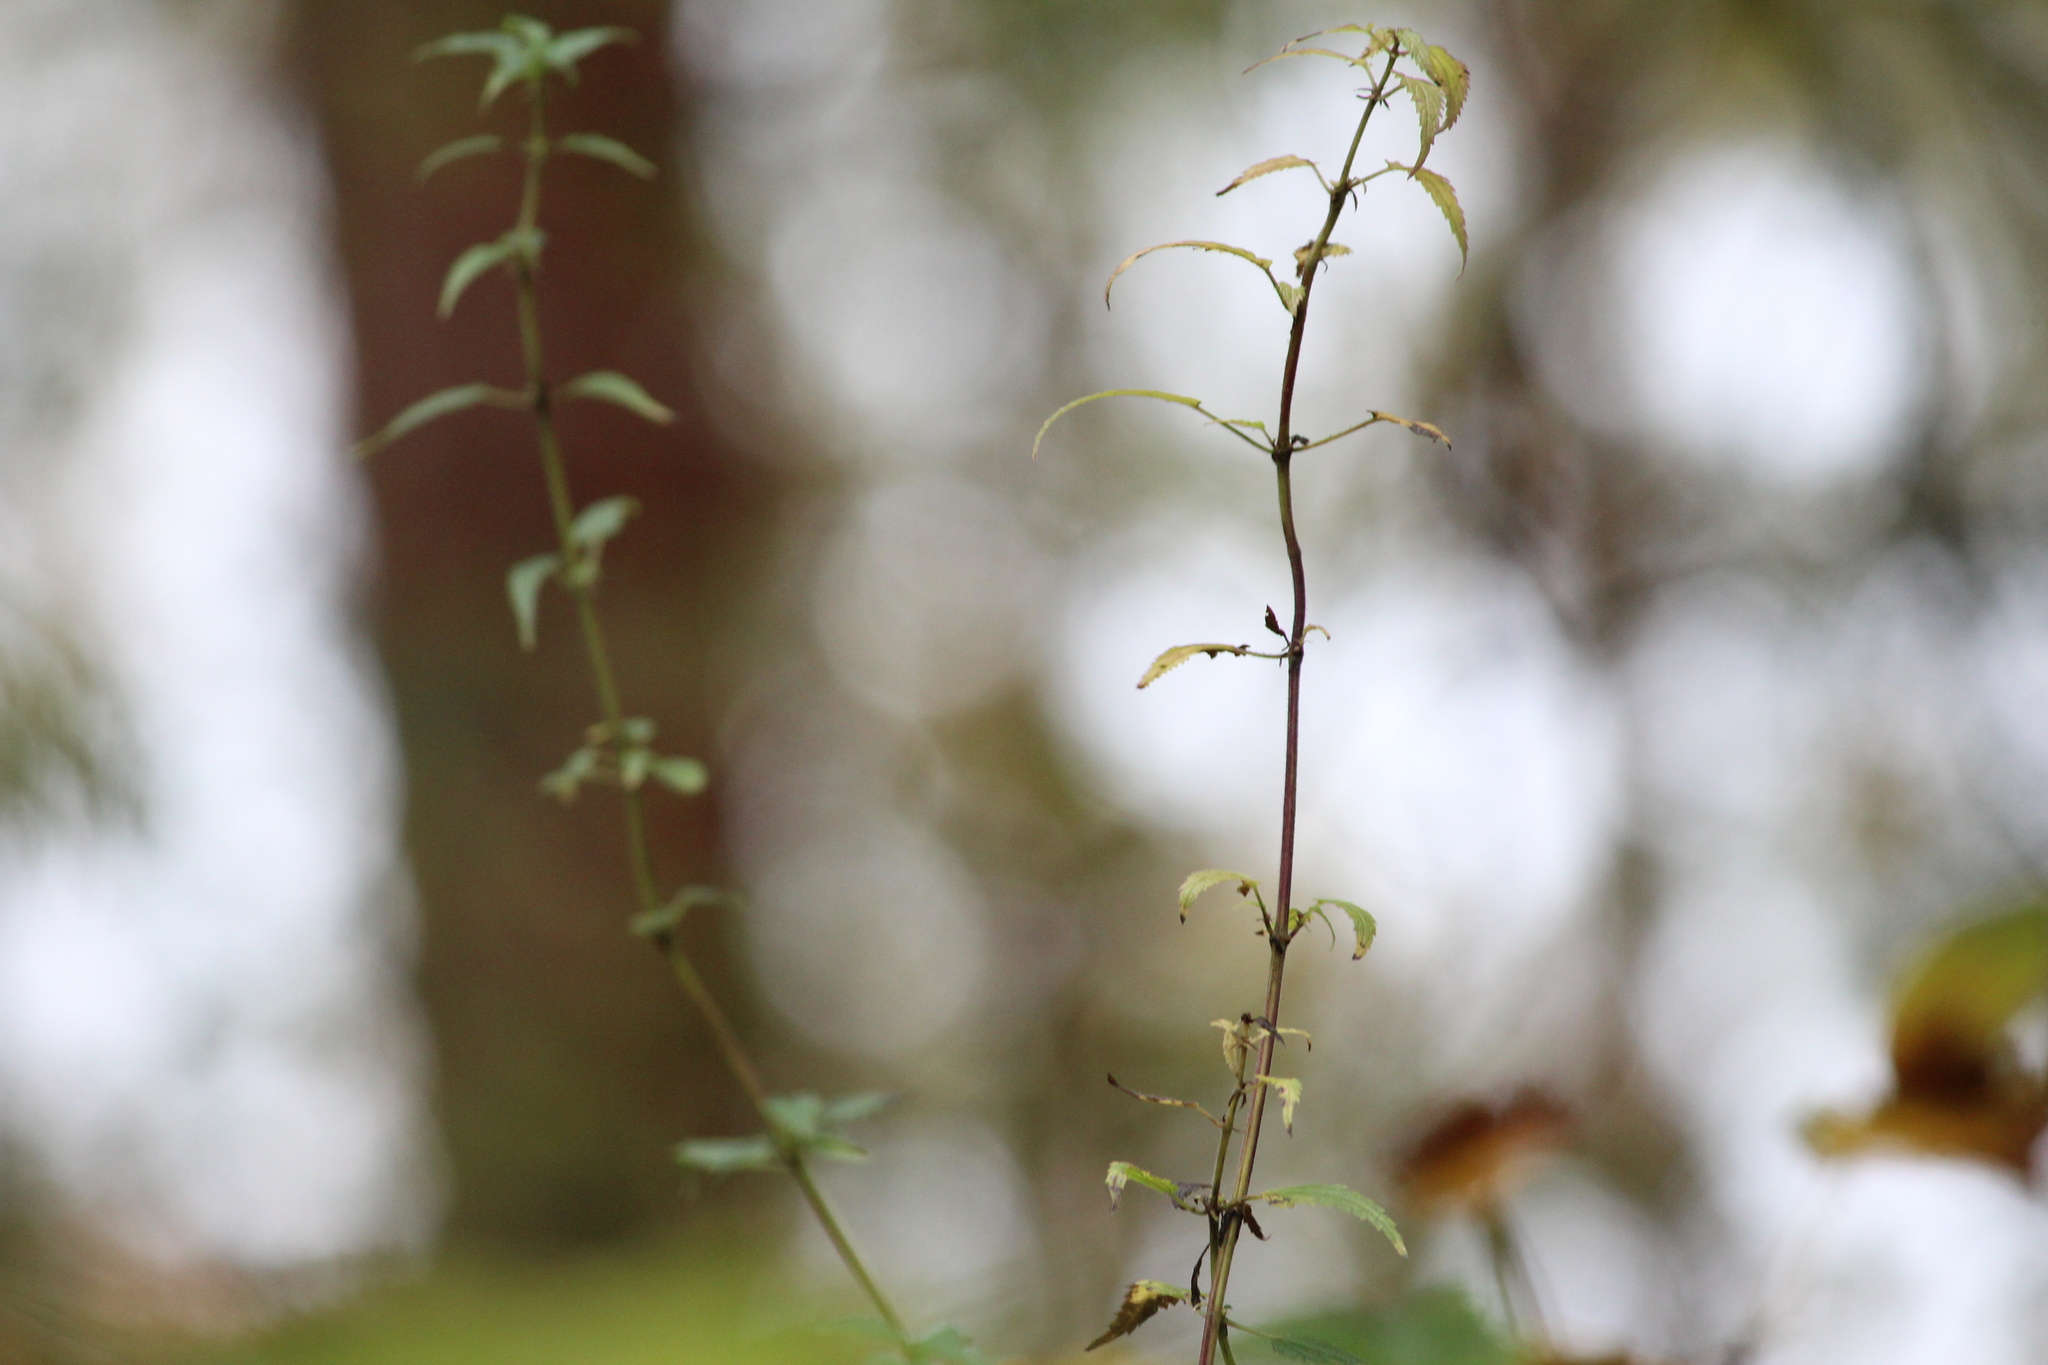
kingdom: Plantae
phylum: Tracheophyta
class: Magnoliopsida
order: Rosales
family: Urticaceae
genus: Urtica
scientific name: Urtica dioica
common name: Common nettle
